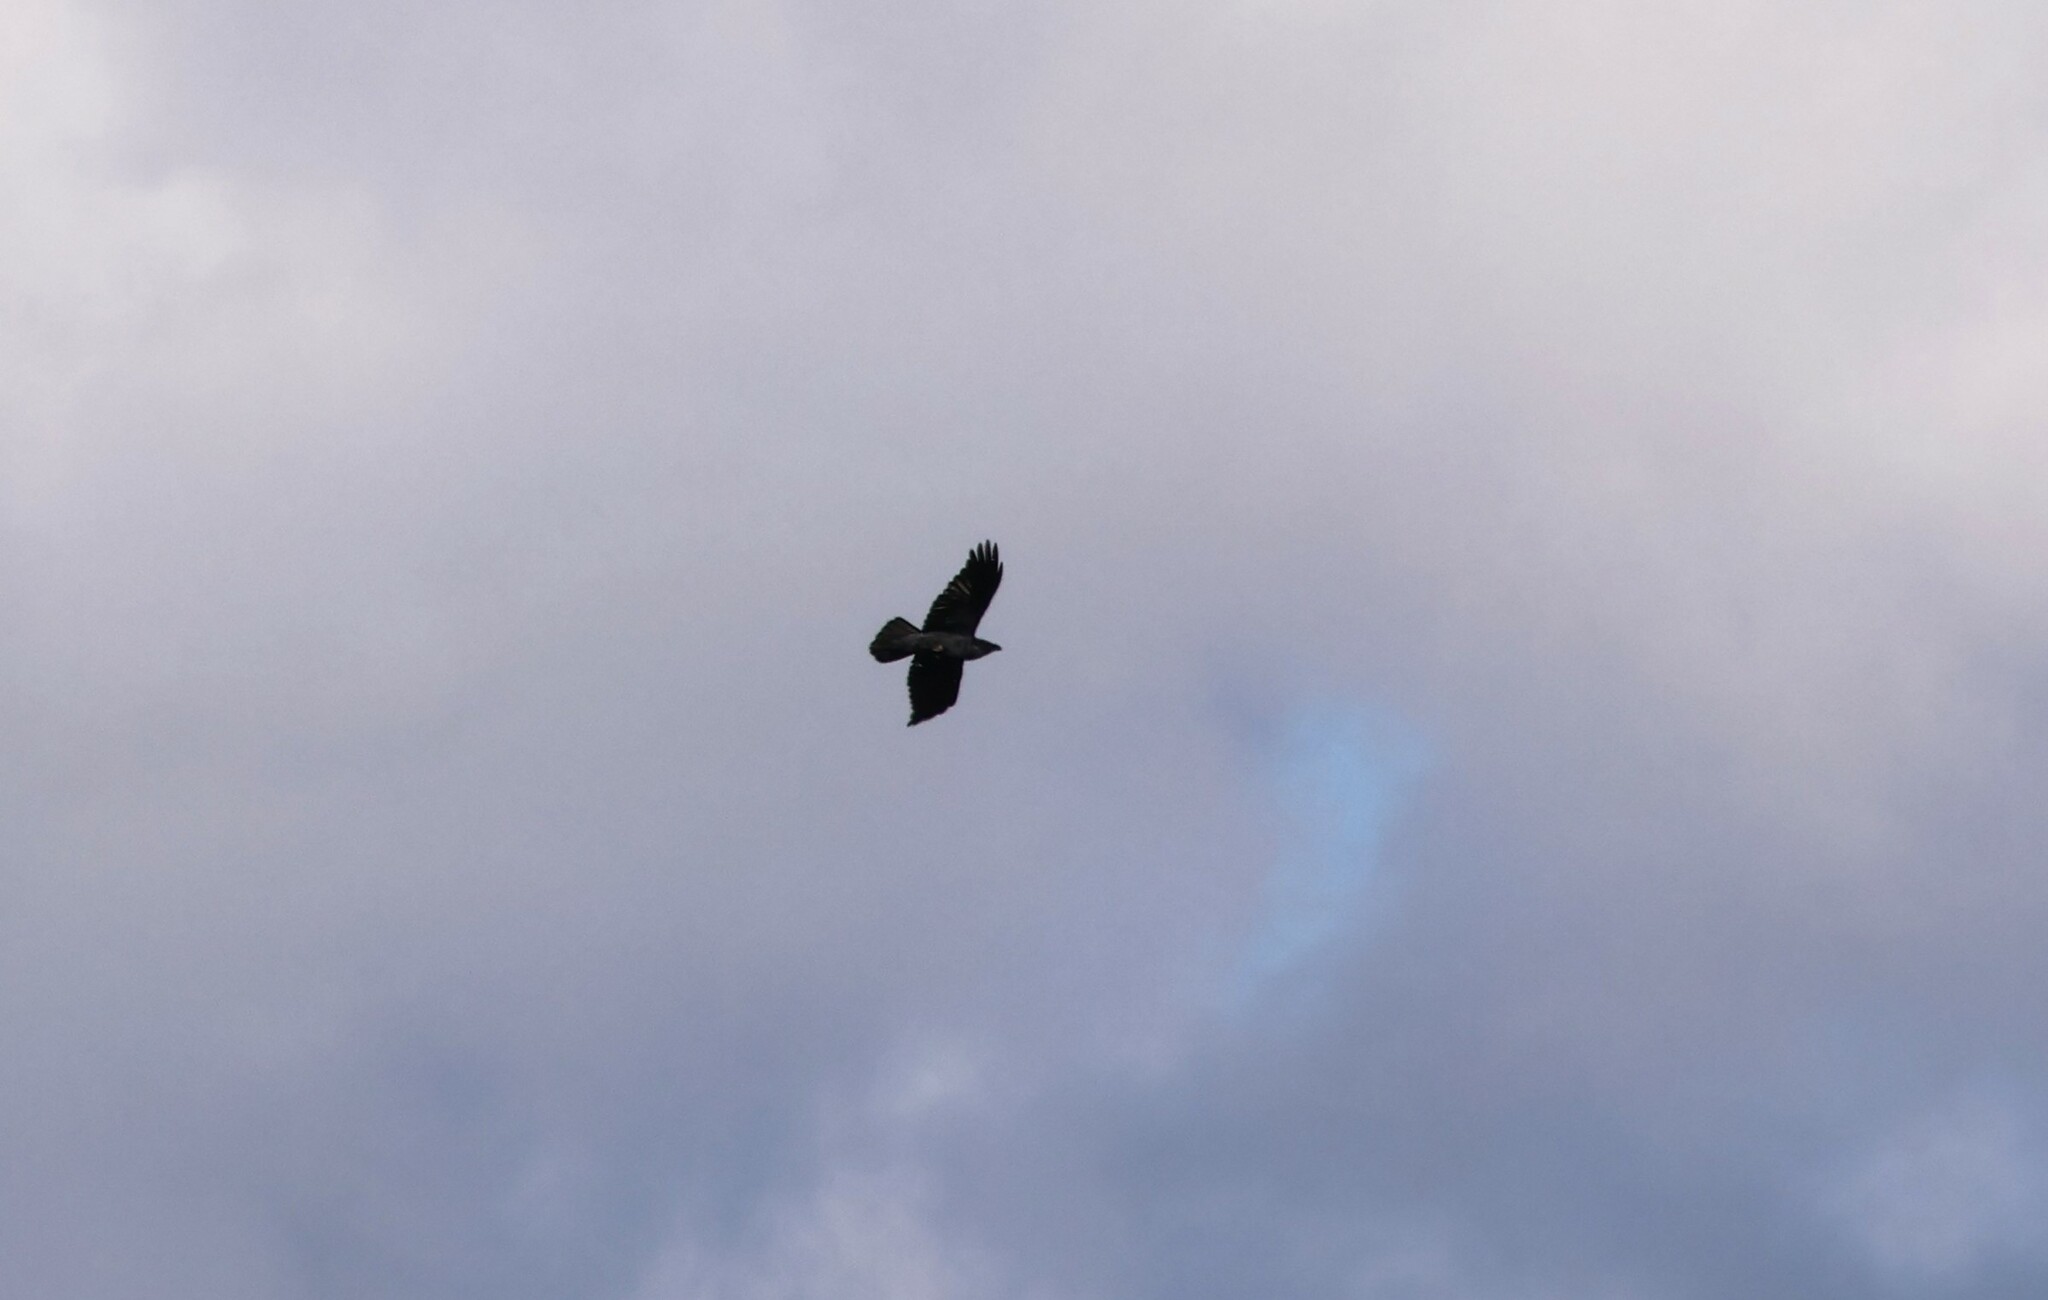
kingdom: Animalia
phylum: Chordata
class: Aves
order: Passeriformes
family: Corvidae
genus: Corvus
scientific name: Corvus corax
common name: Common raven
